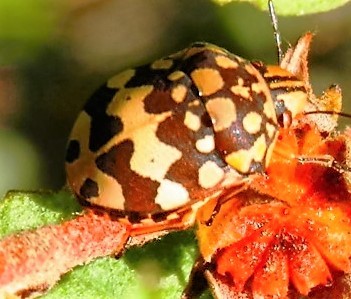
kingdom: Animalia
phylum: Arthropoda
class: Insecta
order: Hemiptera
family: Scutelleridae
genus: Orsilochides
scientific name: Orsilochides
